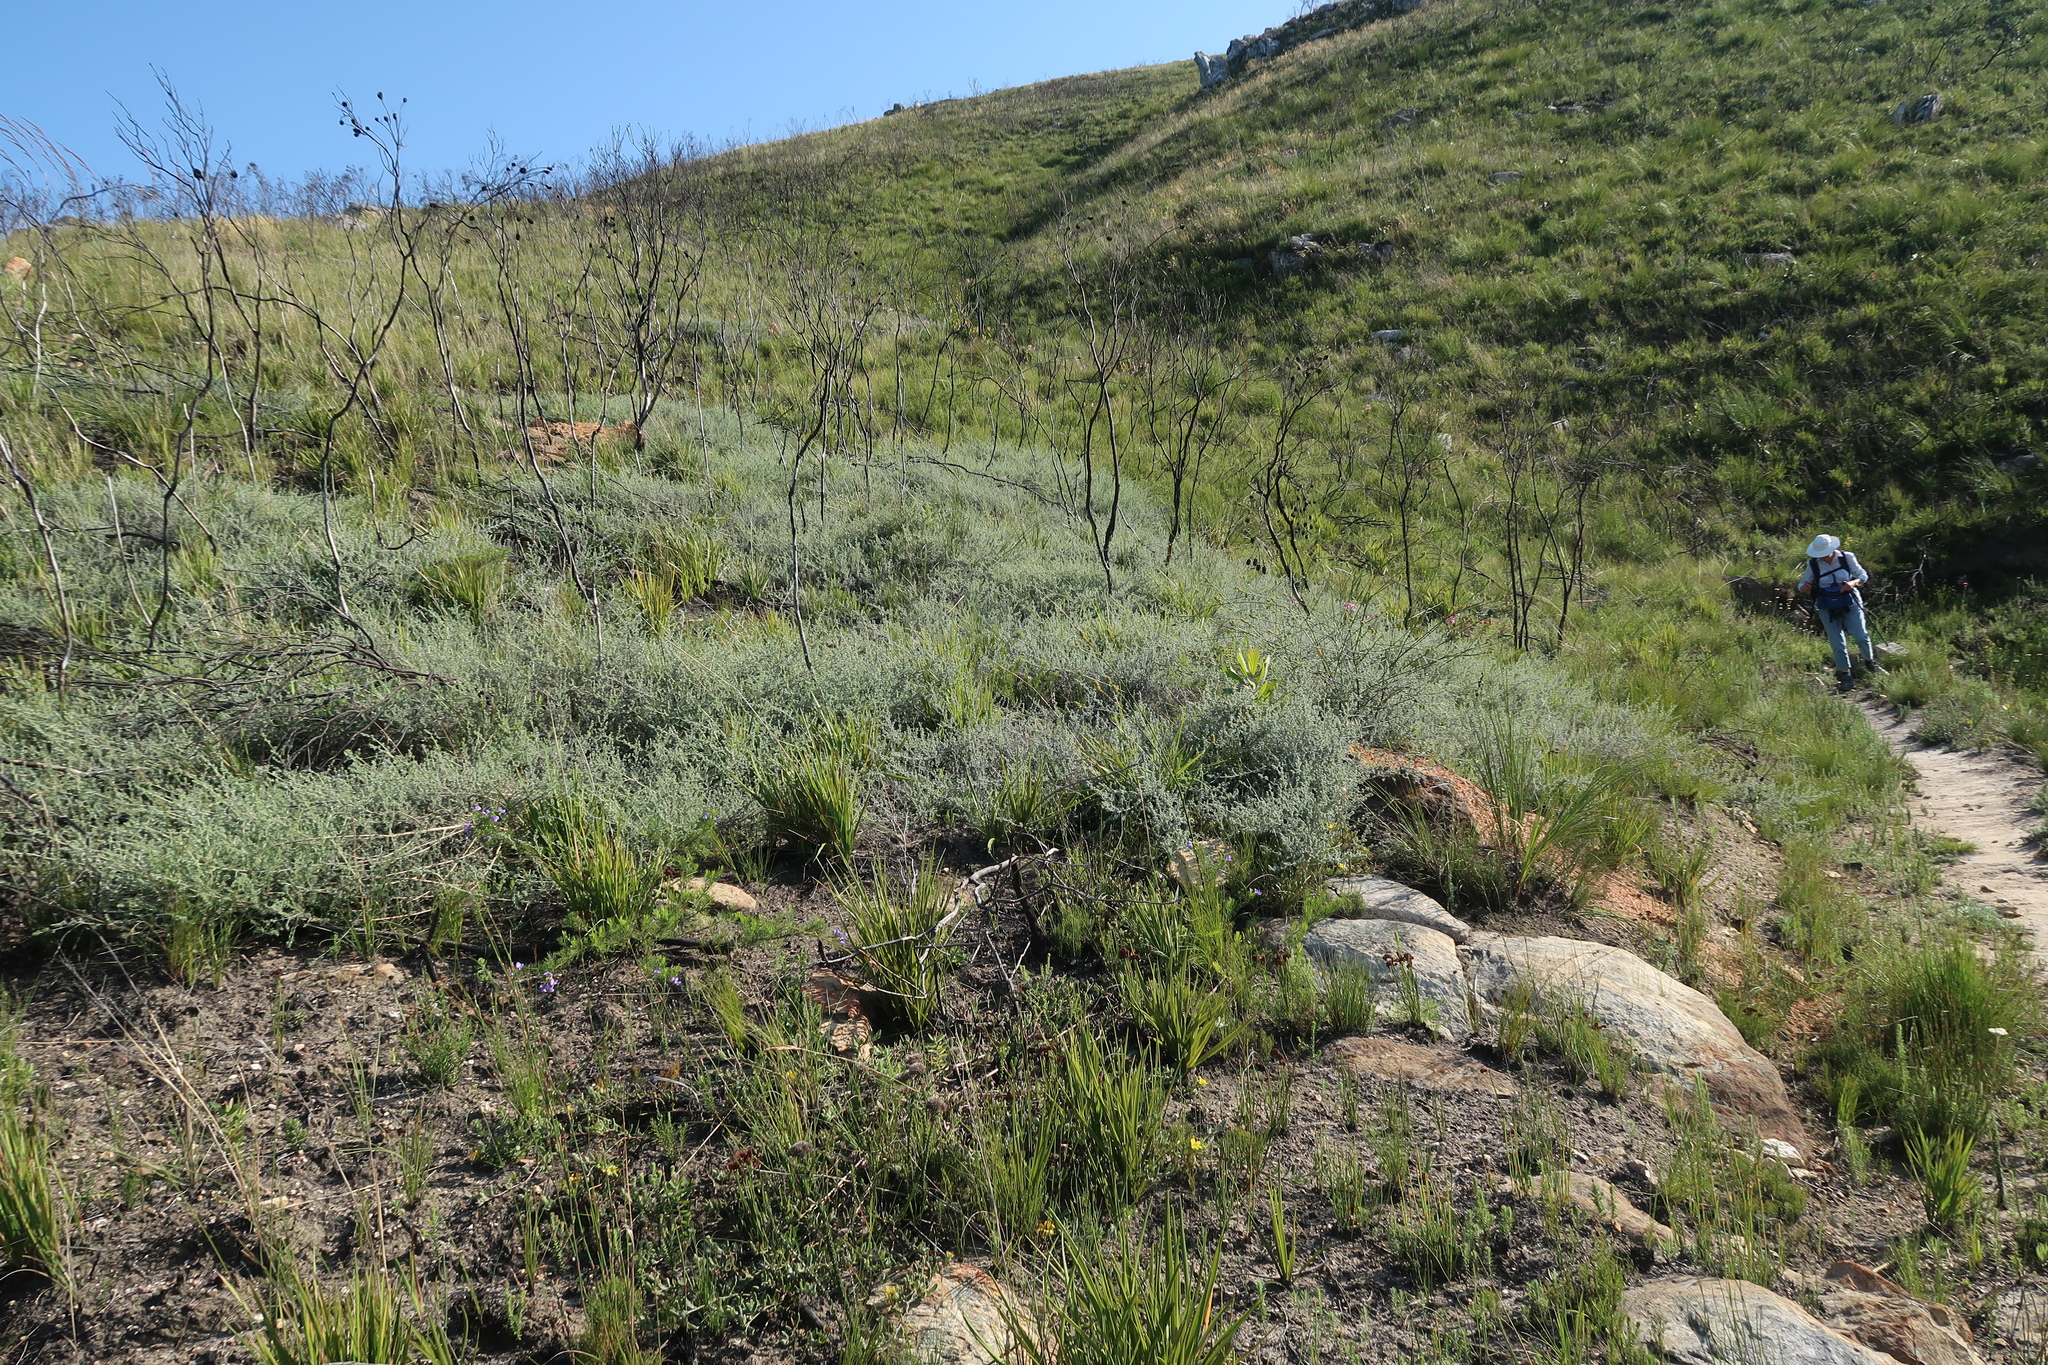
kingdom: Plantae
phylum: Tracheophyta
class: Magnoliopsida
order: Fabales
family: Fabaceae
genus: Aspalathus
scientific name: Aspalathus digitifolia
